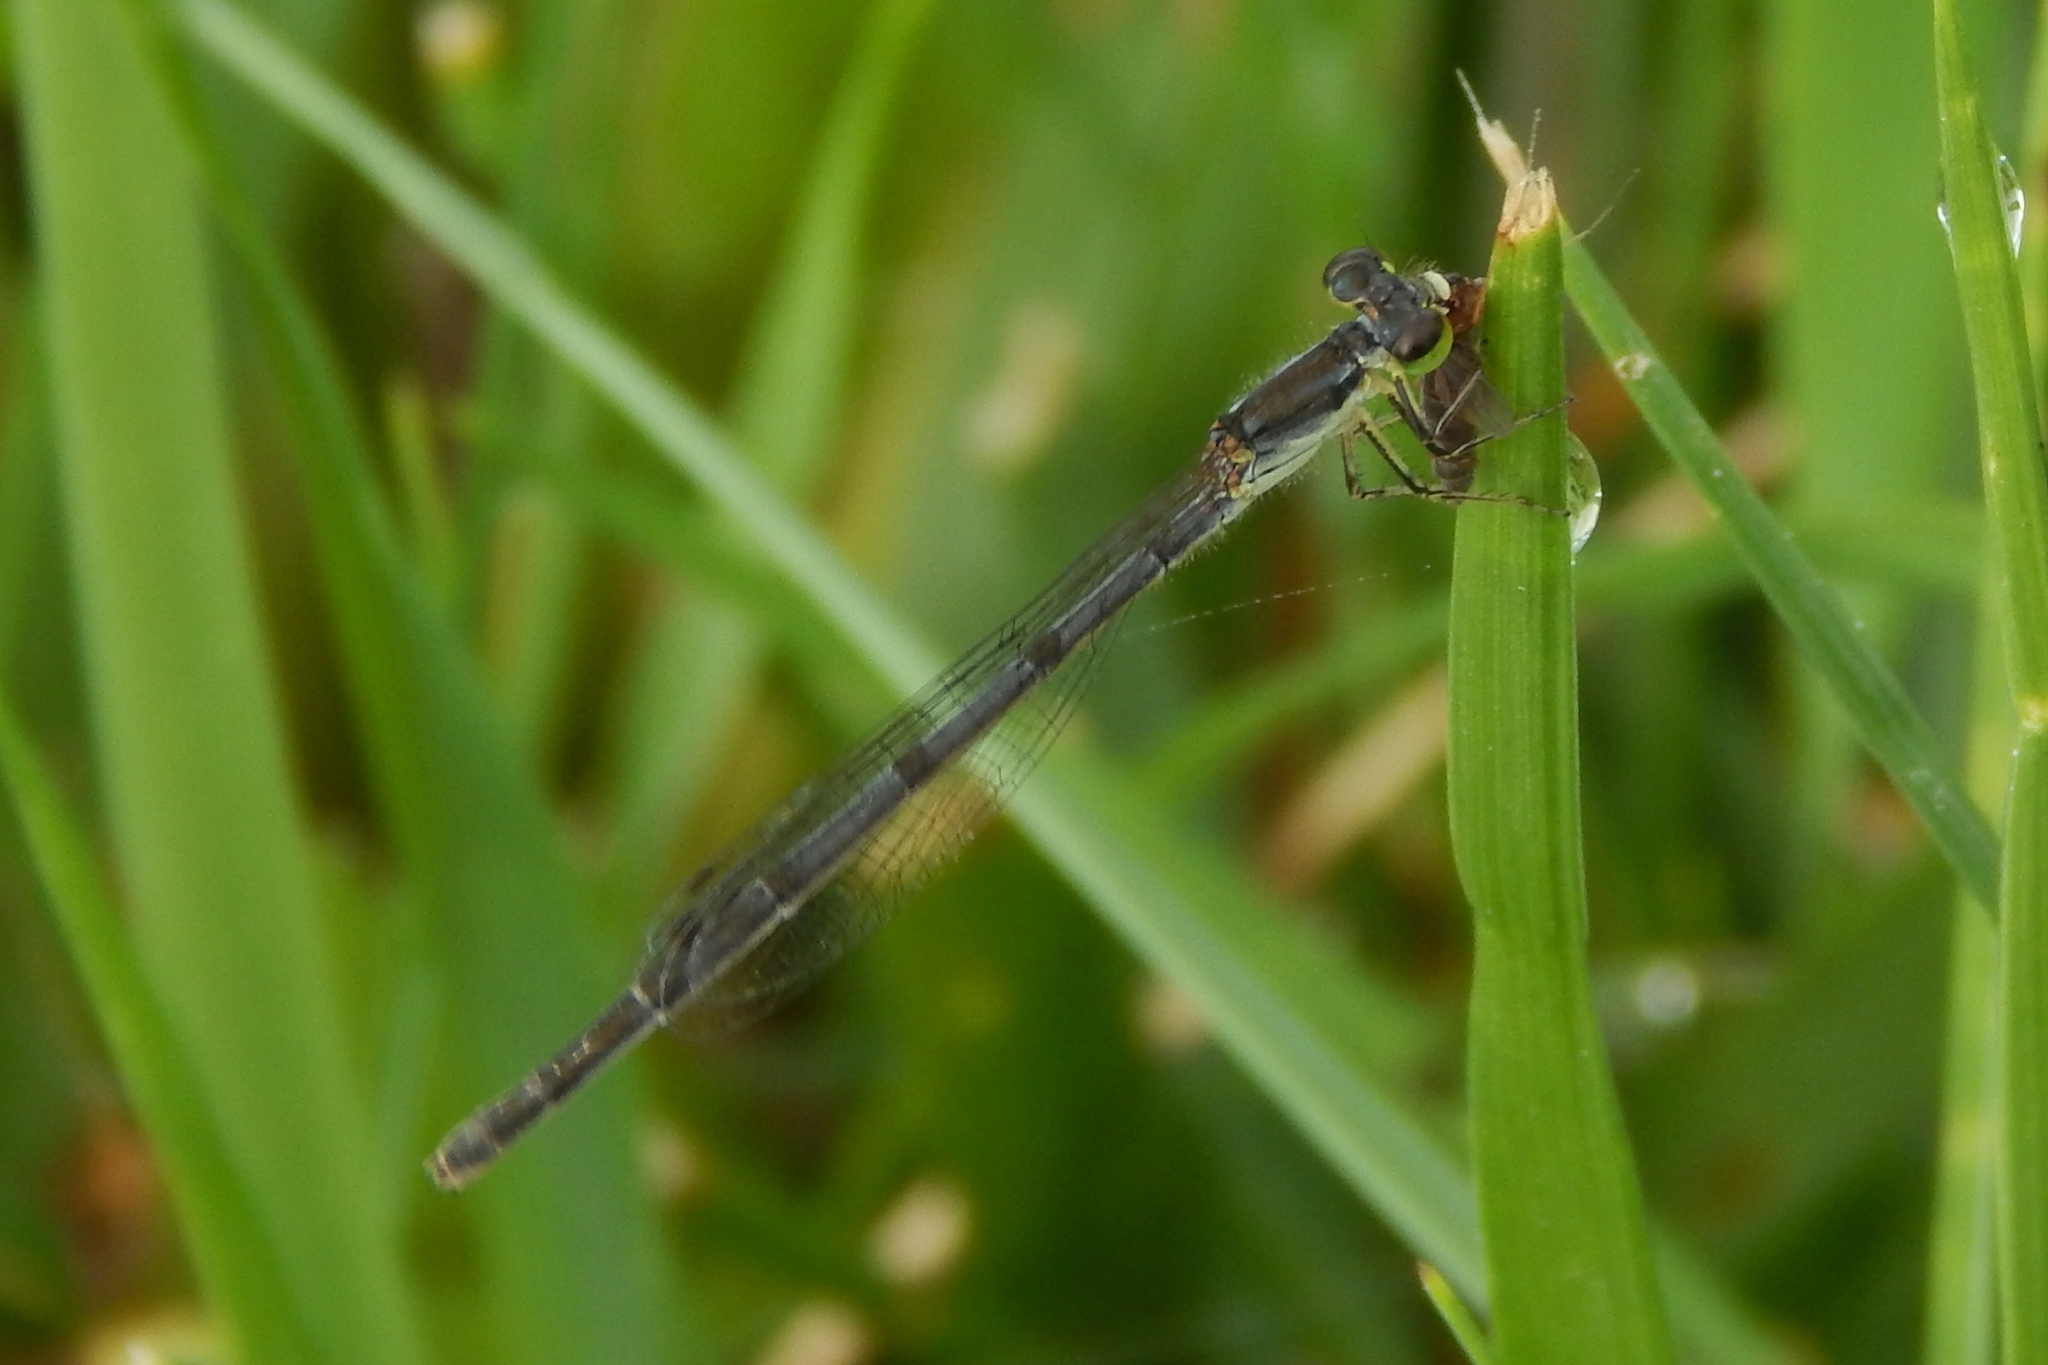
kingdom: Animalia
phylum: Arthropoda
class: Insecta
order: Odonata
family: Coenagrionidae
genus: Ischnura
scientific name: Ischnura posita
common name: Fragile forktail
